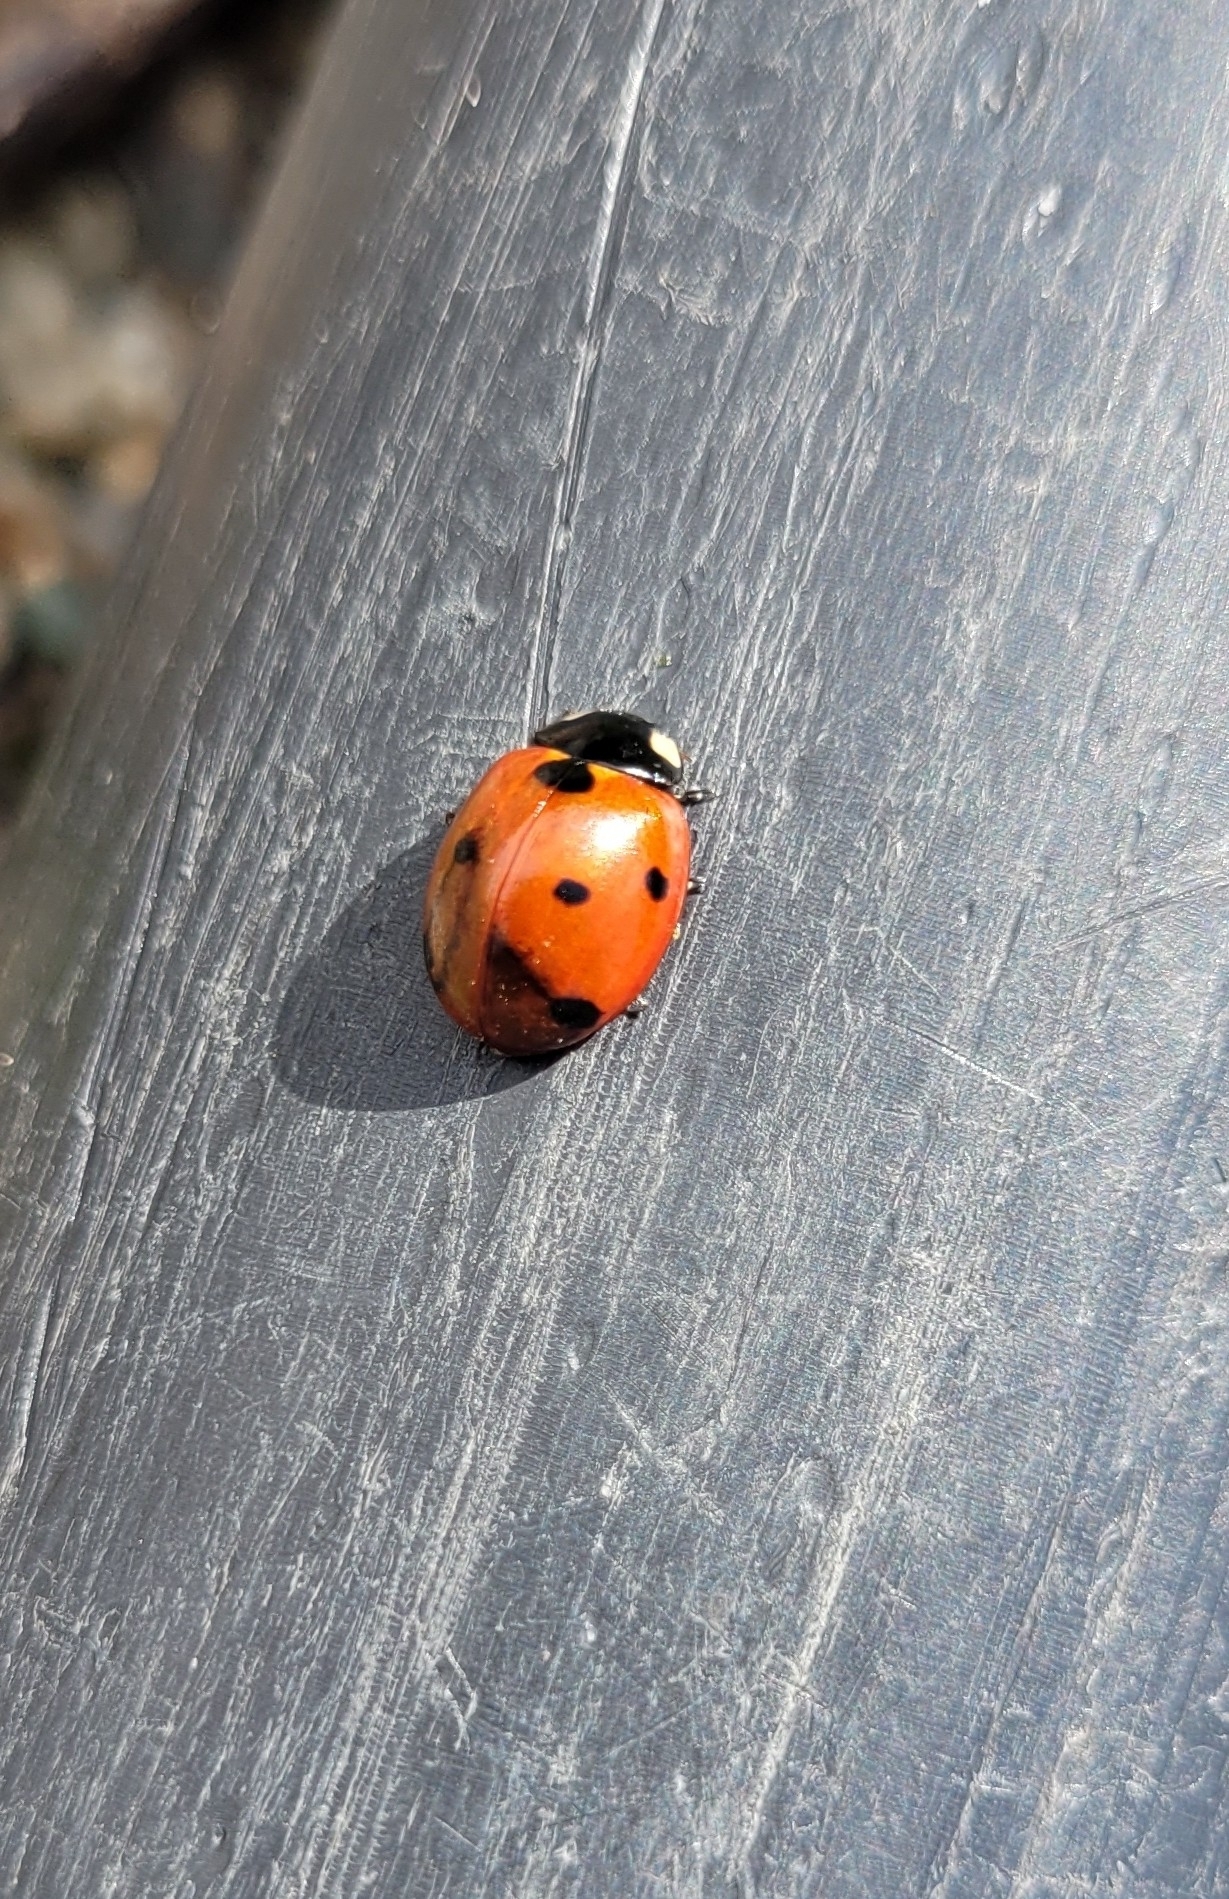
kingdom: Animalia
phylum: Arthropoda
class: Insecta
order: Coleoptera
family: Coccinellidae
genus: Coccinella
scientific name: Coccinella septempunctata
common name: Sevenspotted lady beetle
